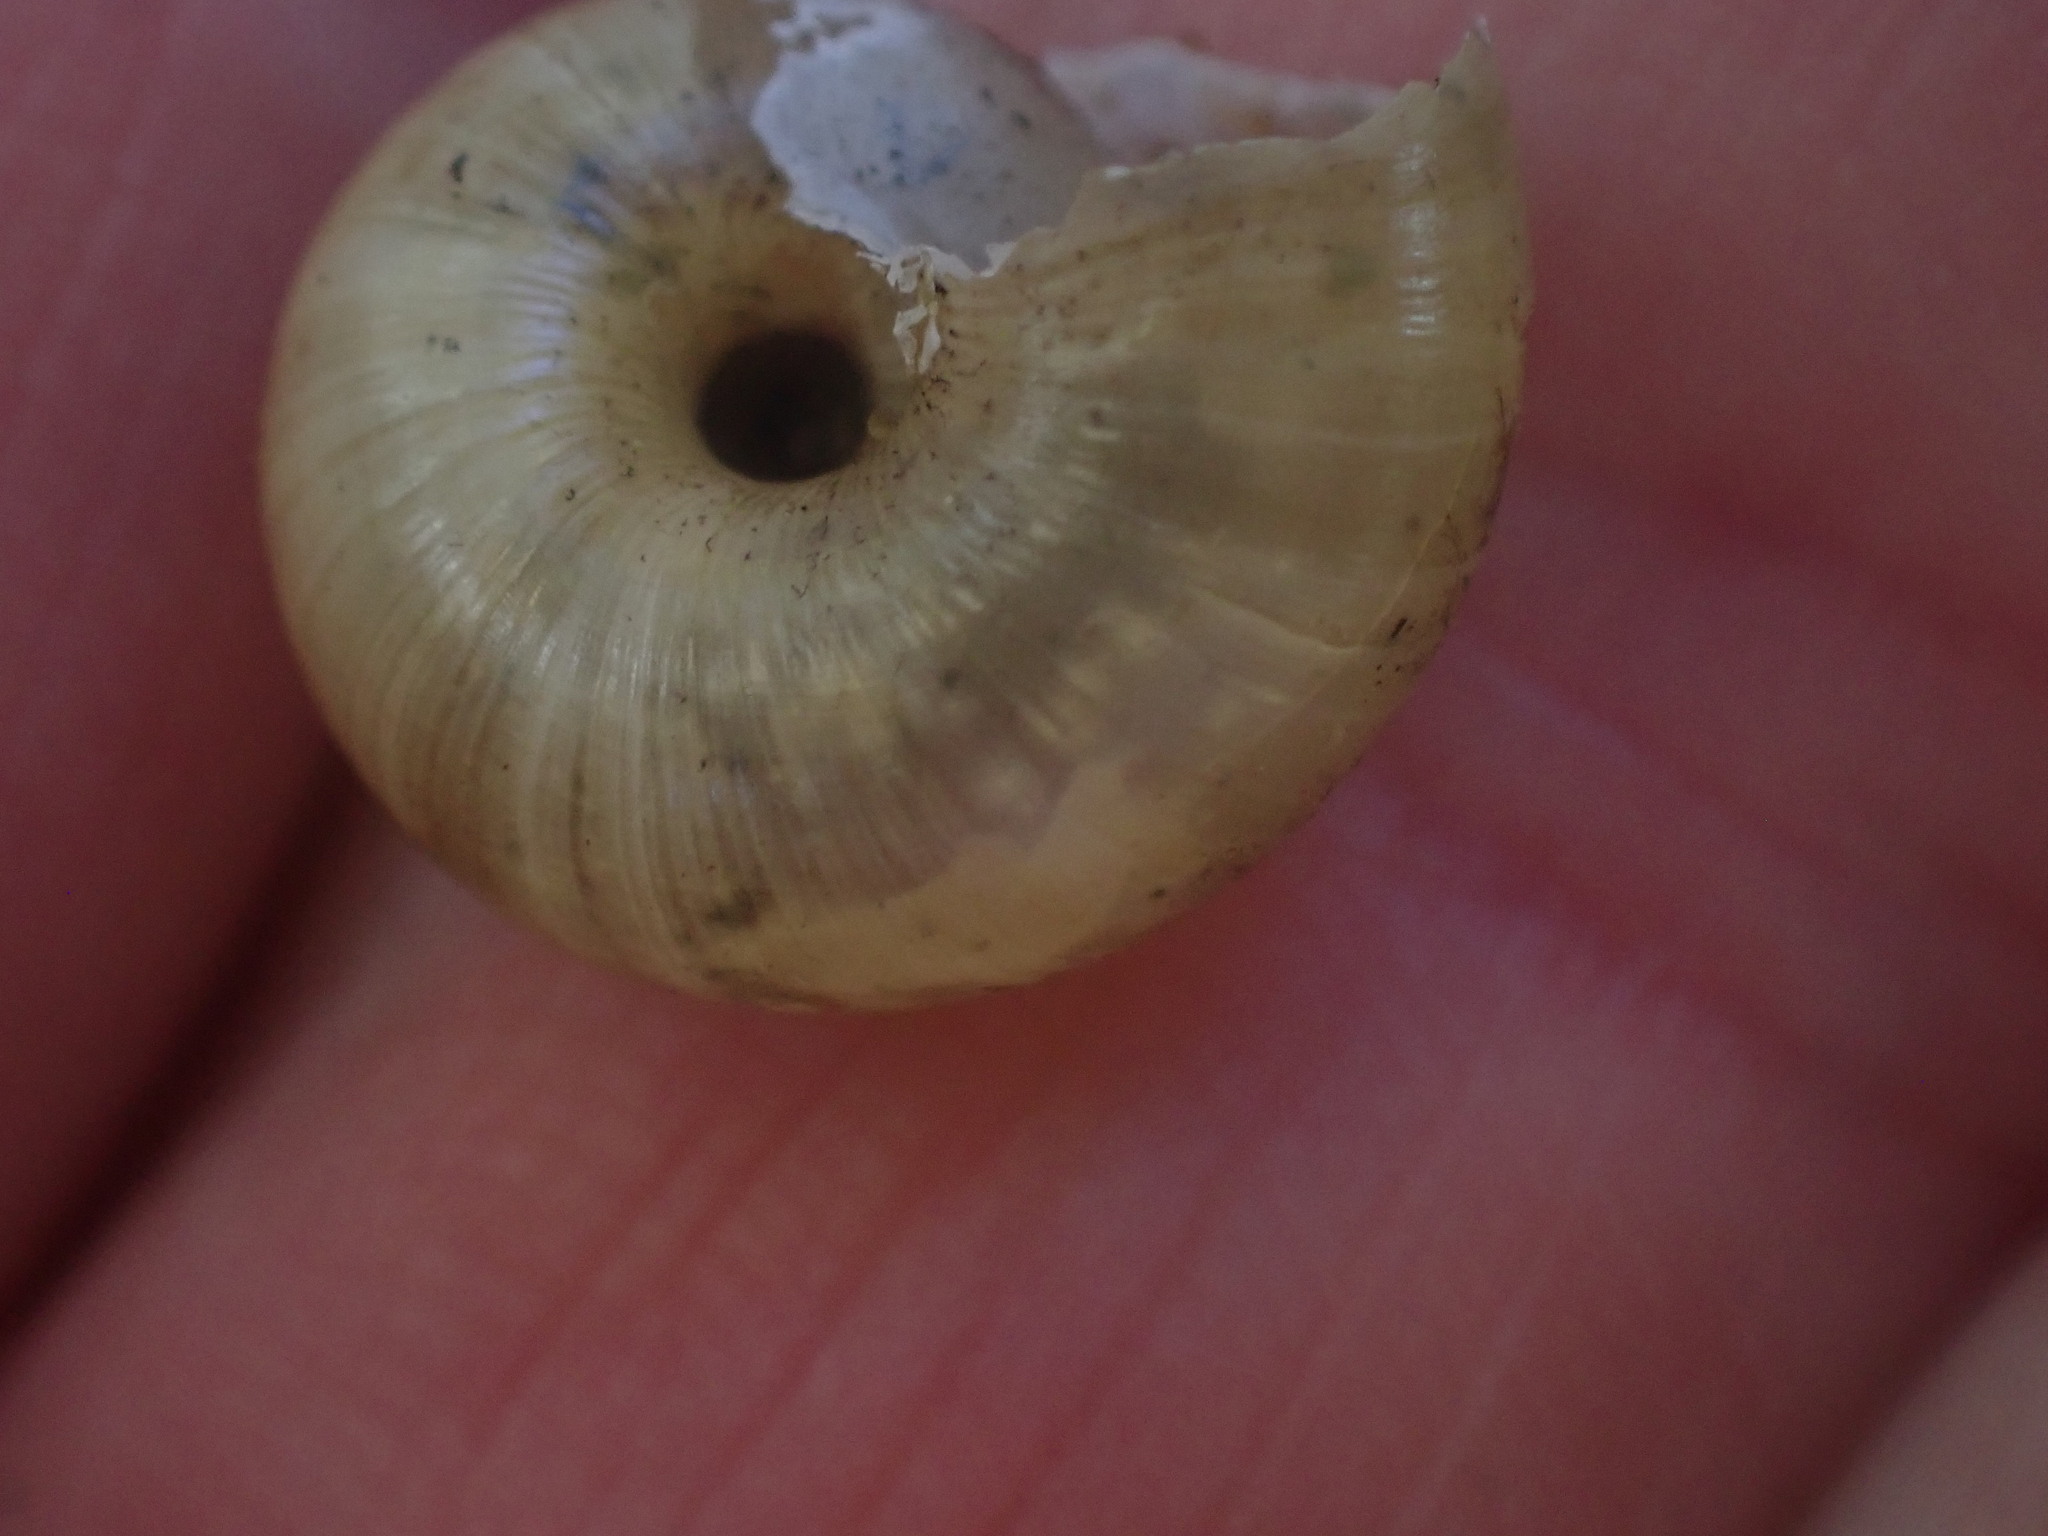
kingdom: Animalia
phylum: Mollusca
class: Gastropoda
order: Stylommatophora
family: Haplotrematidae
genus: Haplotrema
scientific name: Haplotrema vancouverense
